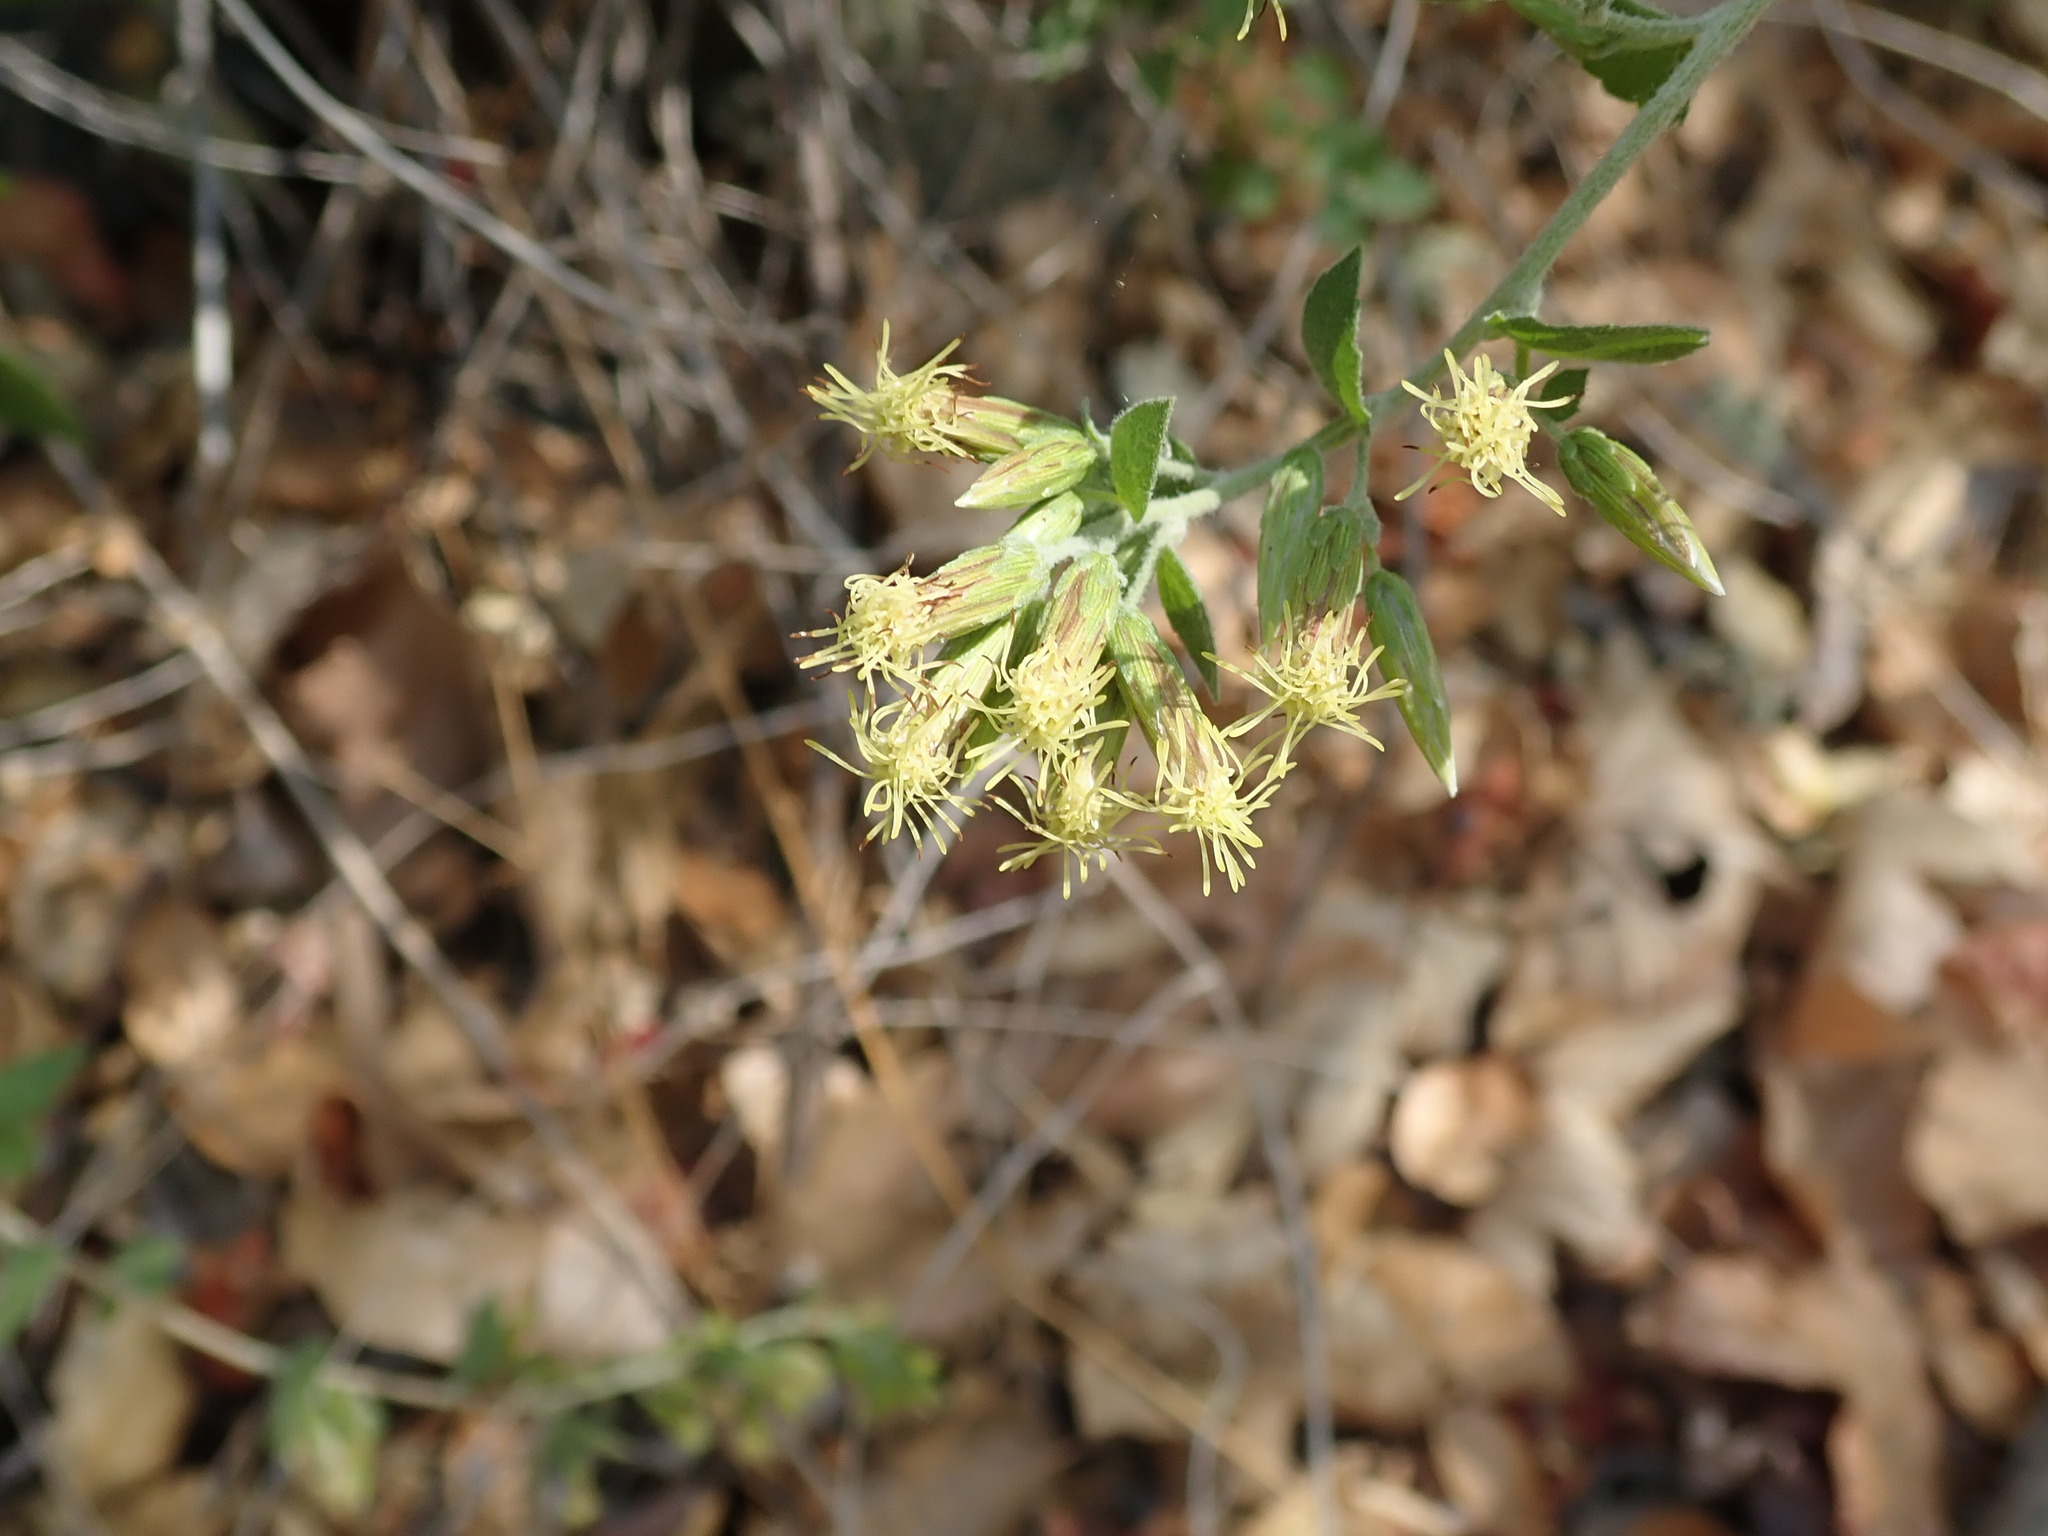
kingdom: Plantae
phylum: Tracheophyta
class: Magnoliopsida
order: Asterales
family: Asteraceae
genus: Brickellia
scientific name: Brickellia californica
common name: California brickellbush
